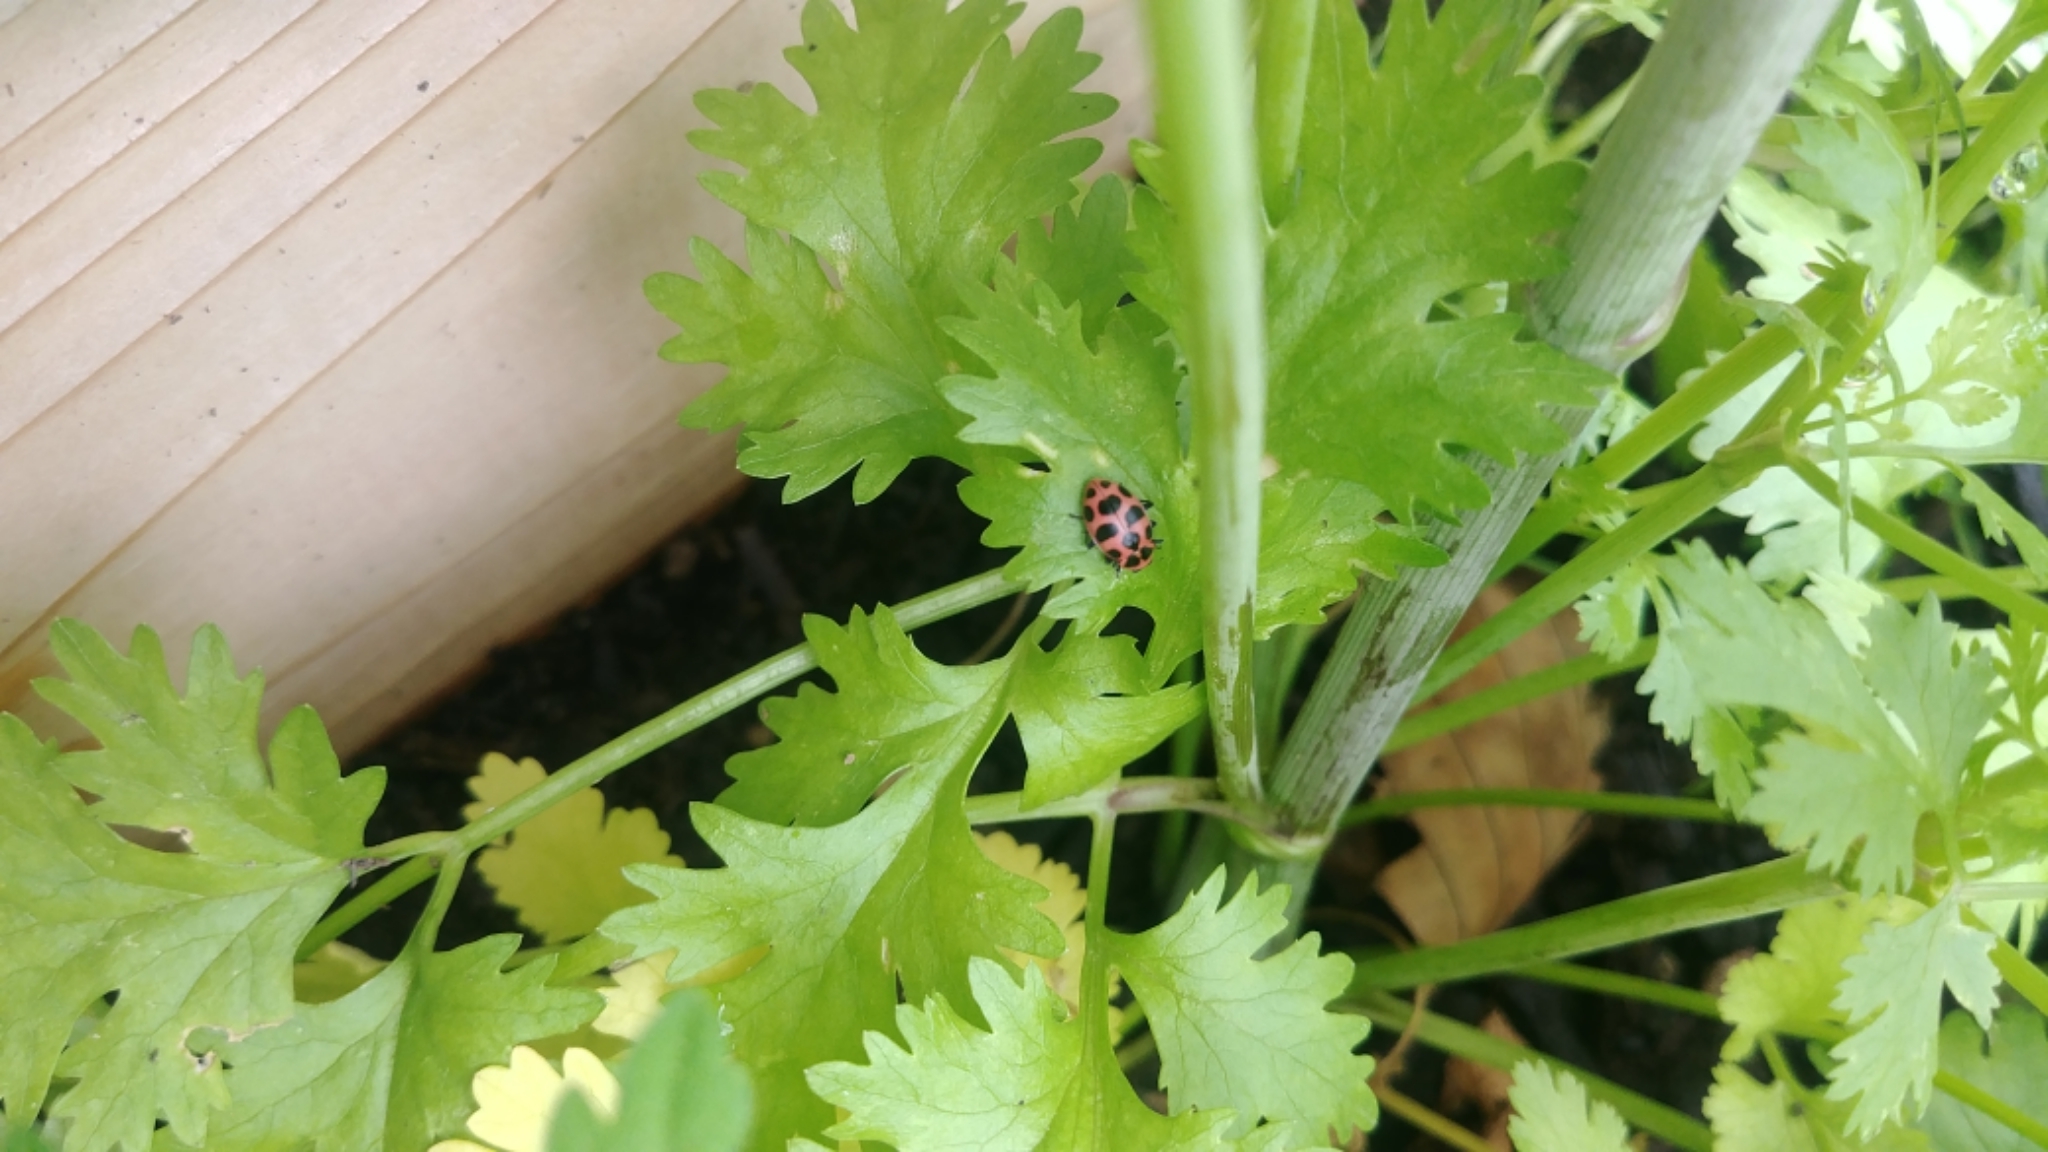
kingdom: Animalia
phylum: Arthropoda
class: Insecta
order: Coleoptera
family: Coccinellidae
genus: Coleomegilla
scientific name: Coleomegilla maculata
